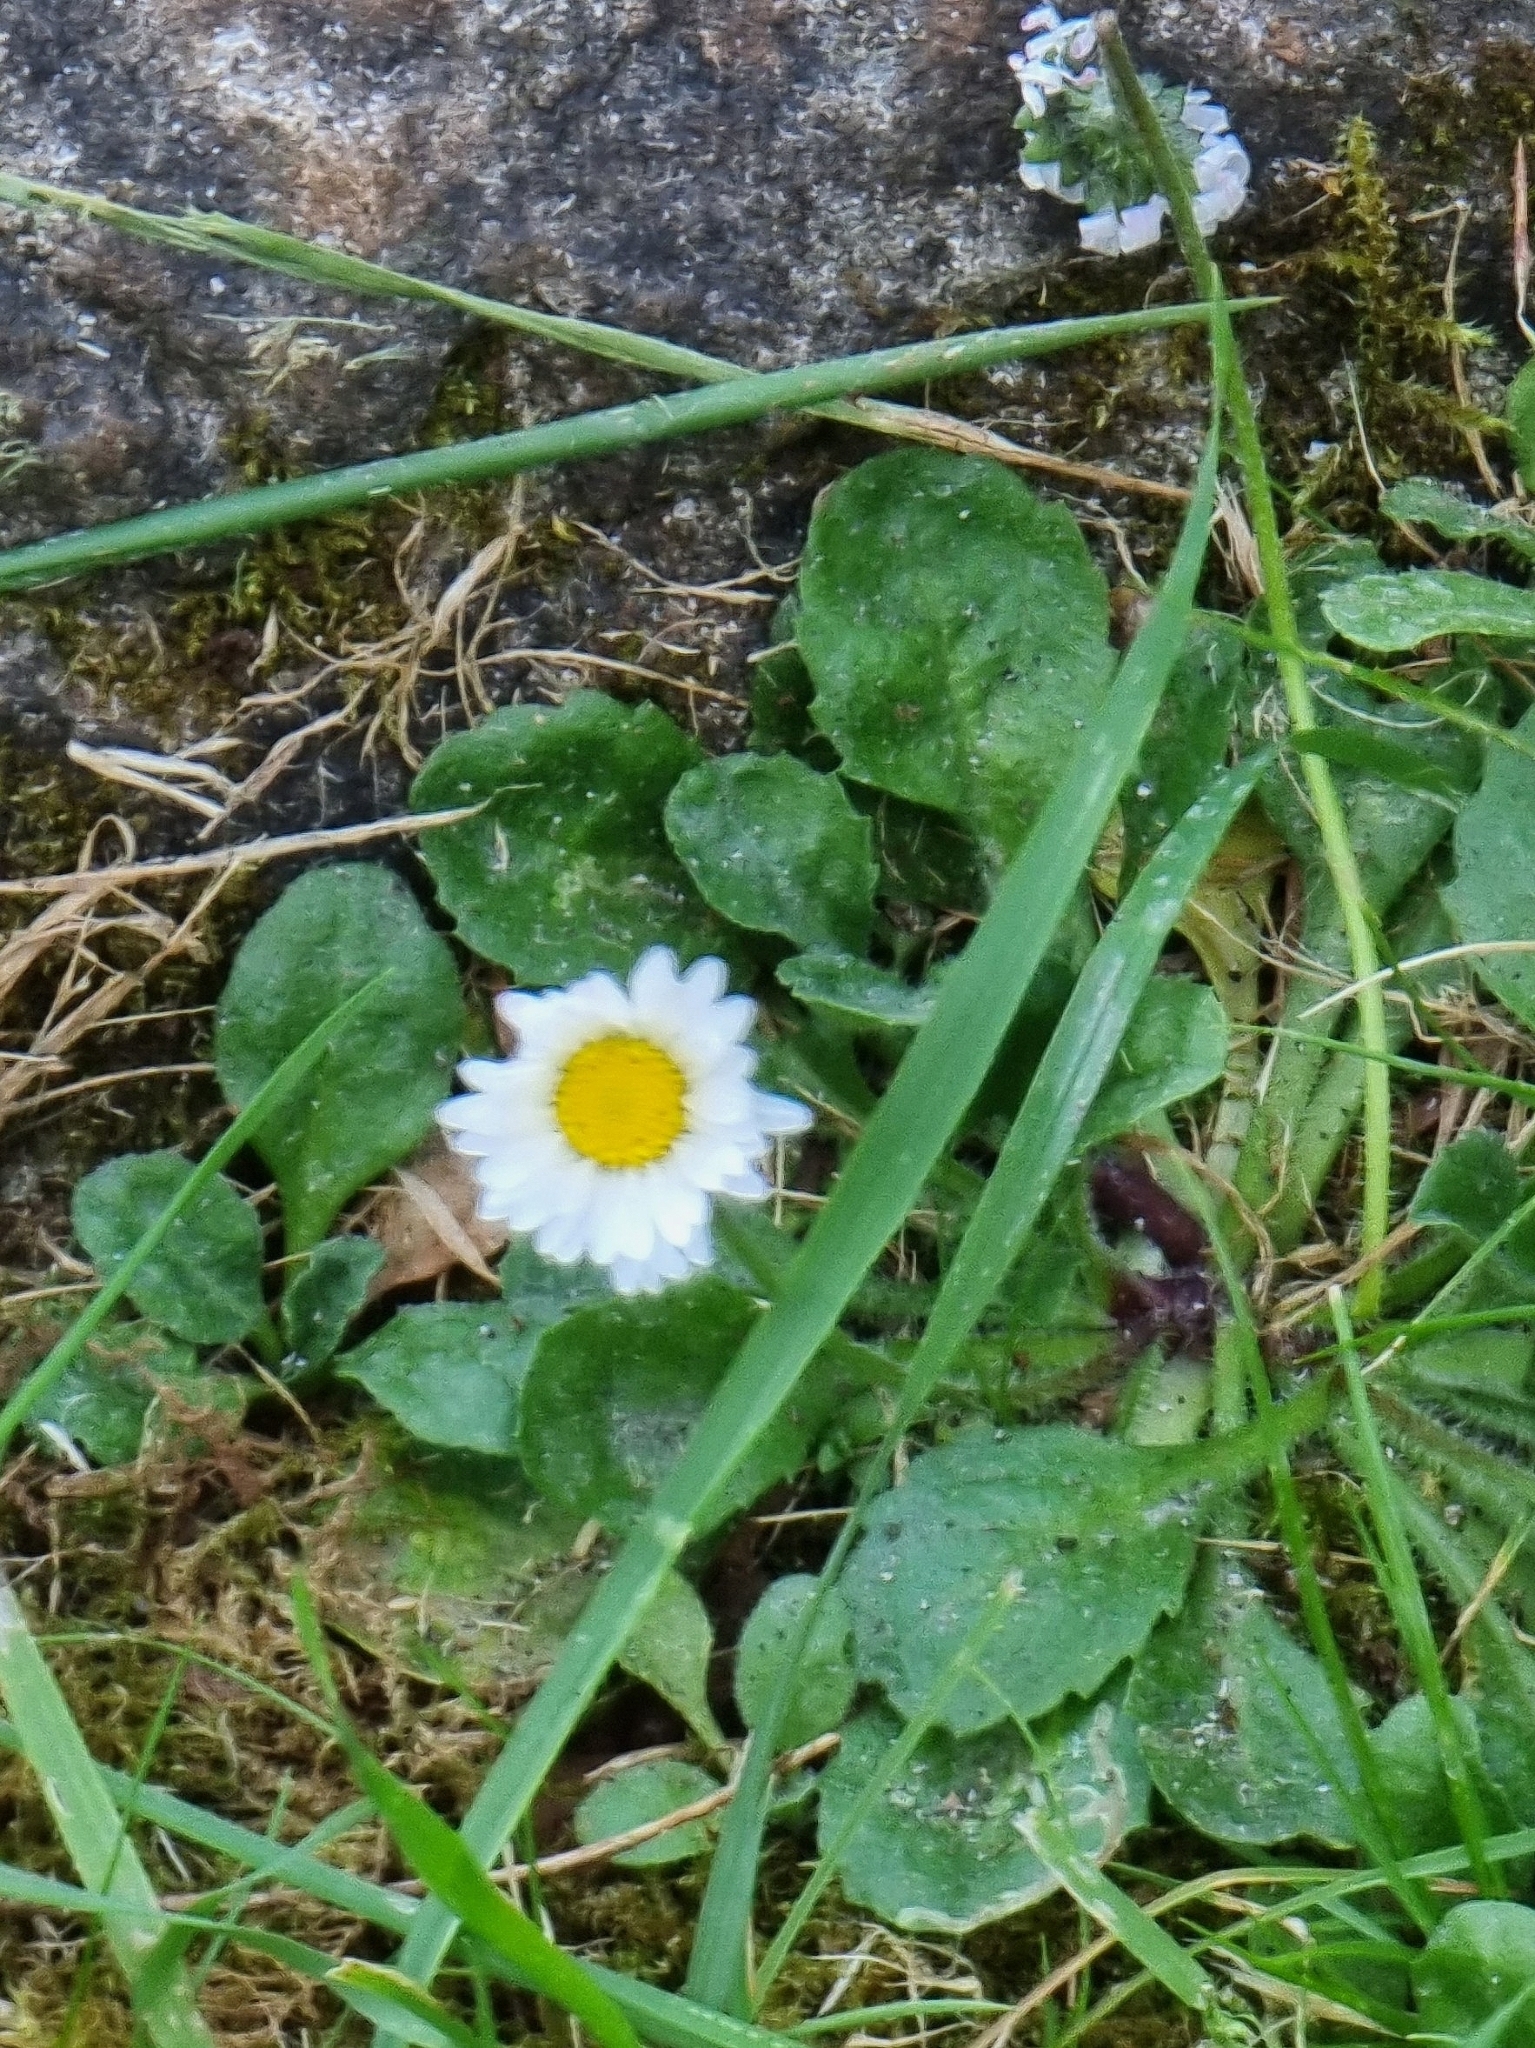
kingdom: Plantae
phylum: Tracheophyta
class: Magnoliopsida
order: Asterales
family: Asteraceae
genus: Bellis
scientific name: Bellis perennis
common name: Lawndaisy
